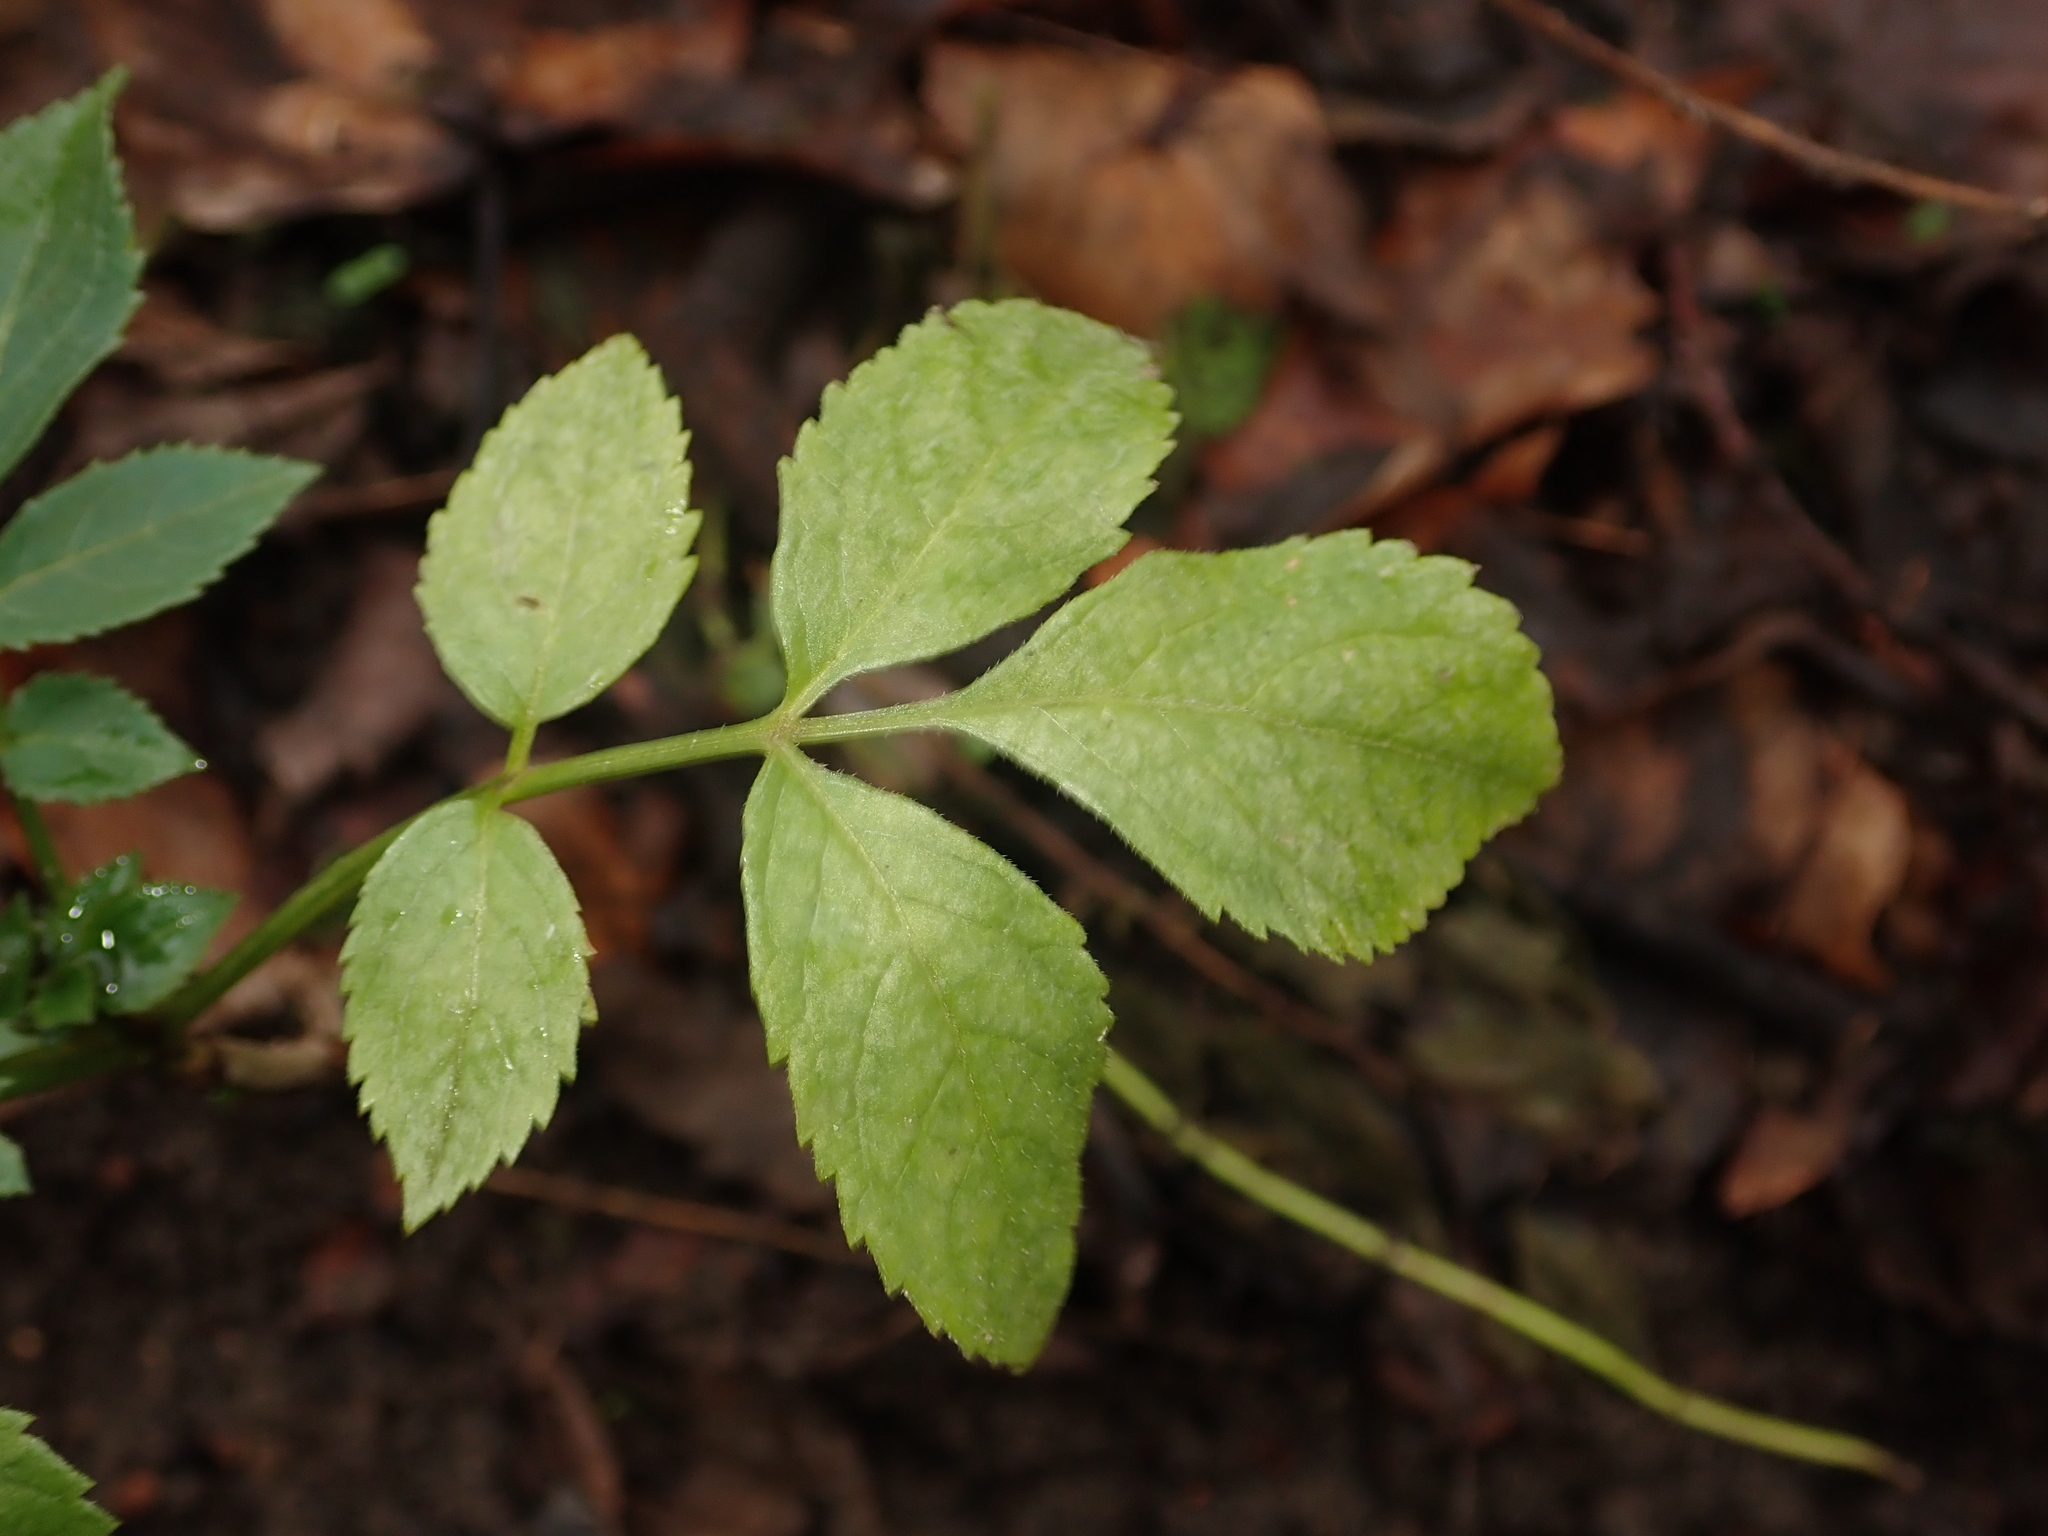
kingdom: Plantae
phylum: Tracheophyta
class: Magnoliopsida
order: Dipsacales
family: Viburnaceae
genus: Sambucus
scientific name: Sambucus nigra
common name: Elder
